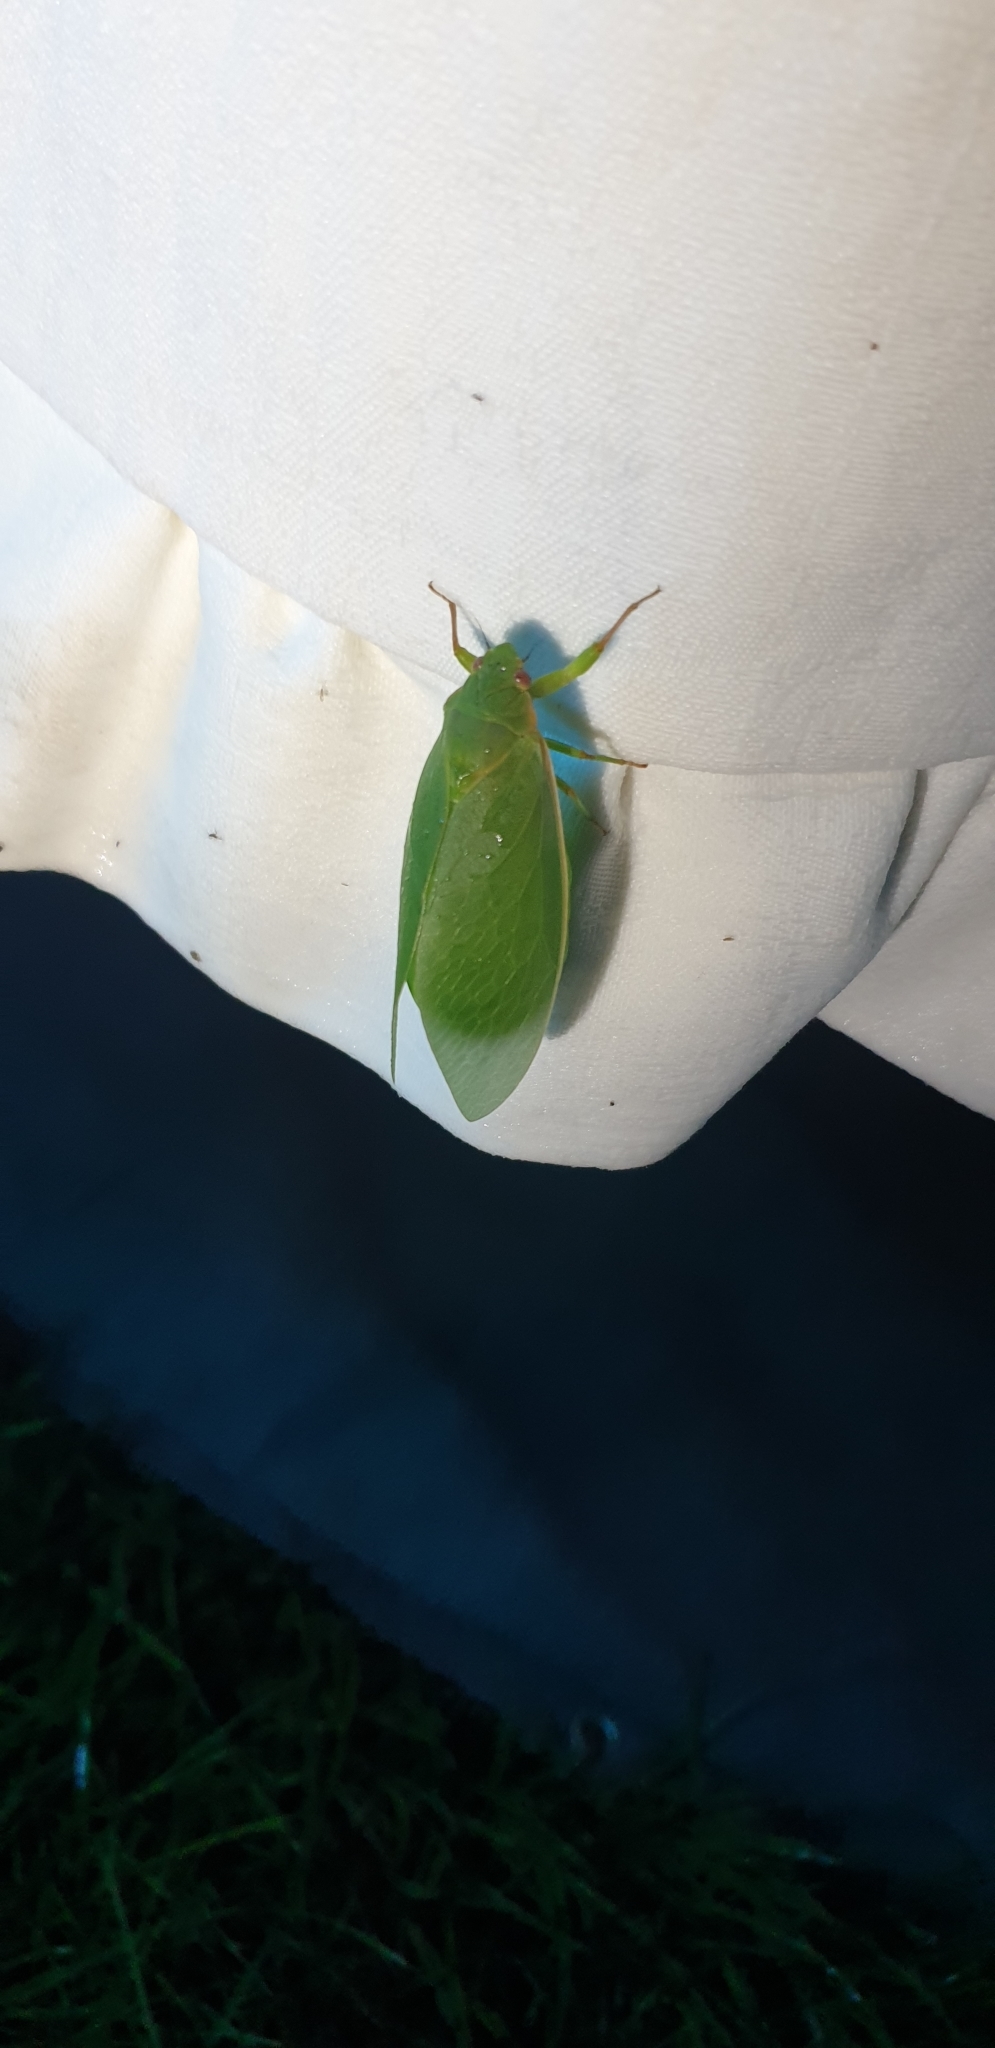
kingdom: Animalia
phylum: Arthropoda
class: Insecta
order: Hemiptera
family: Cicadidae
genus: Cystosoma
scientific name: Cystosoma saundersii
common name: Bladder cicada
